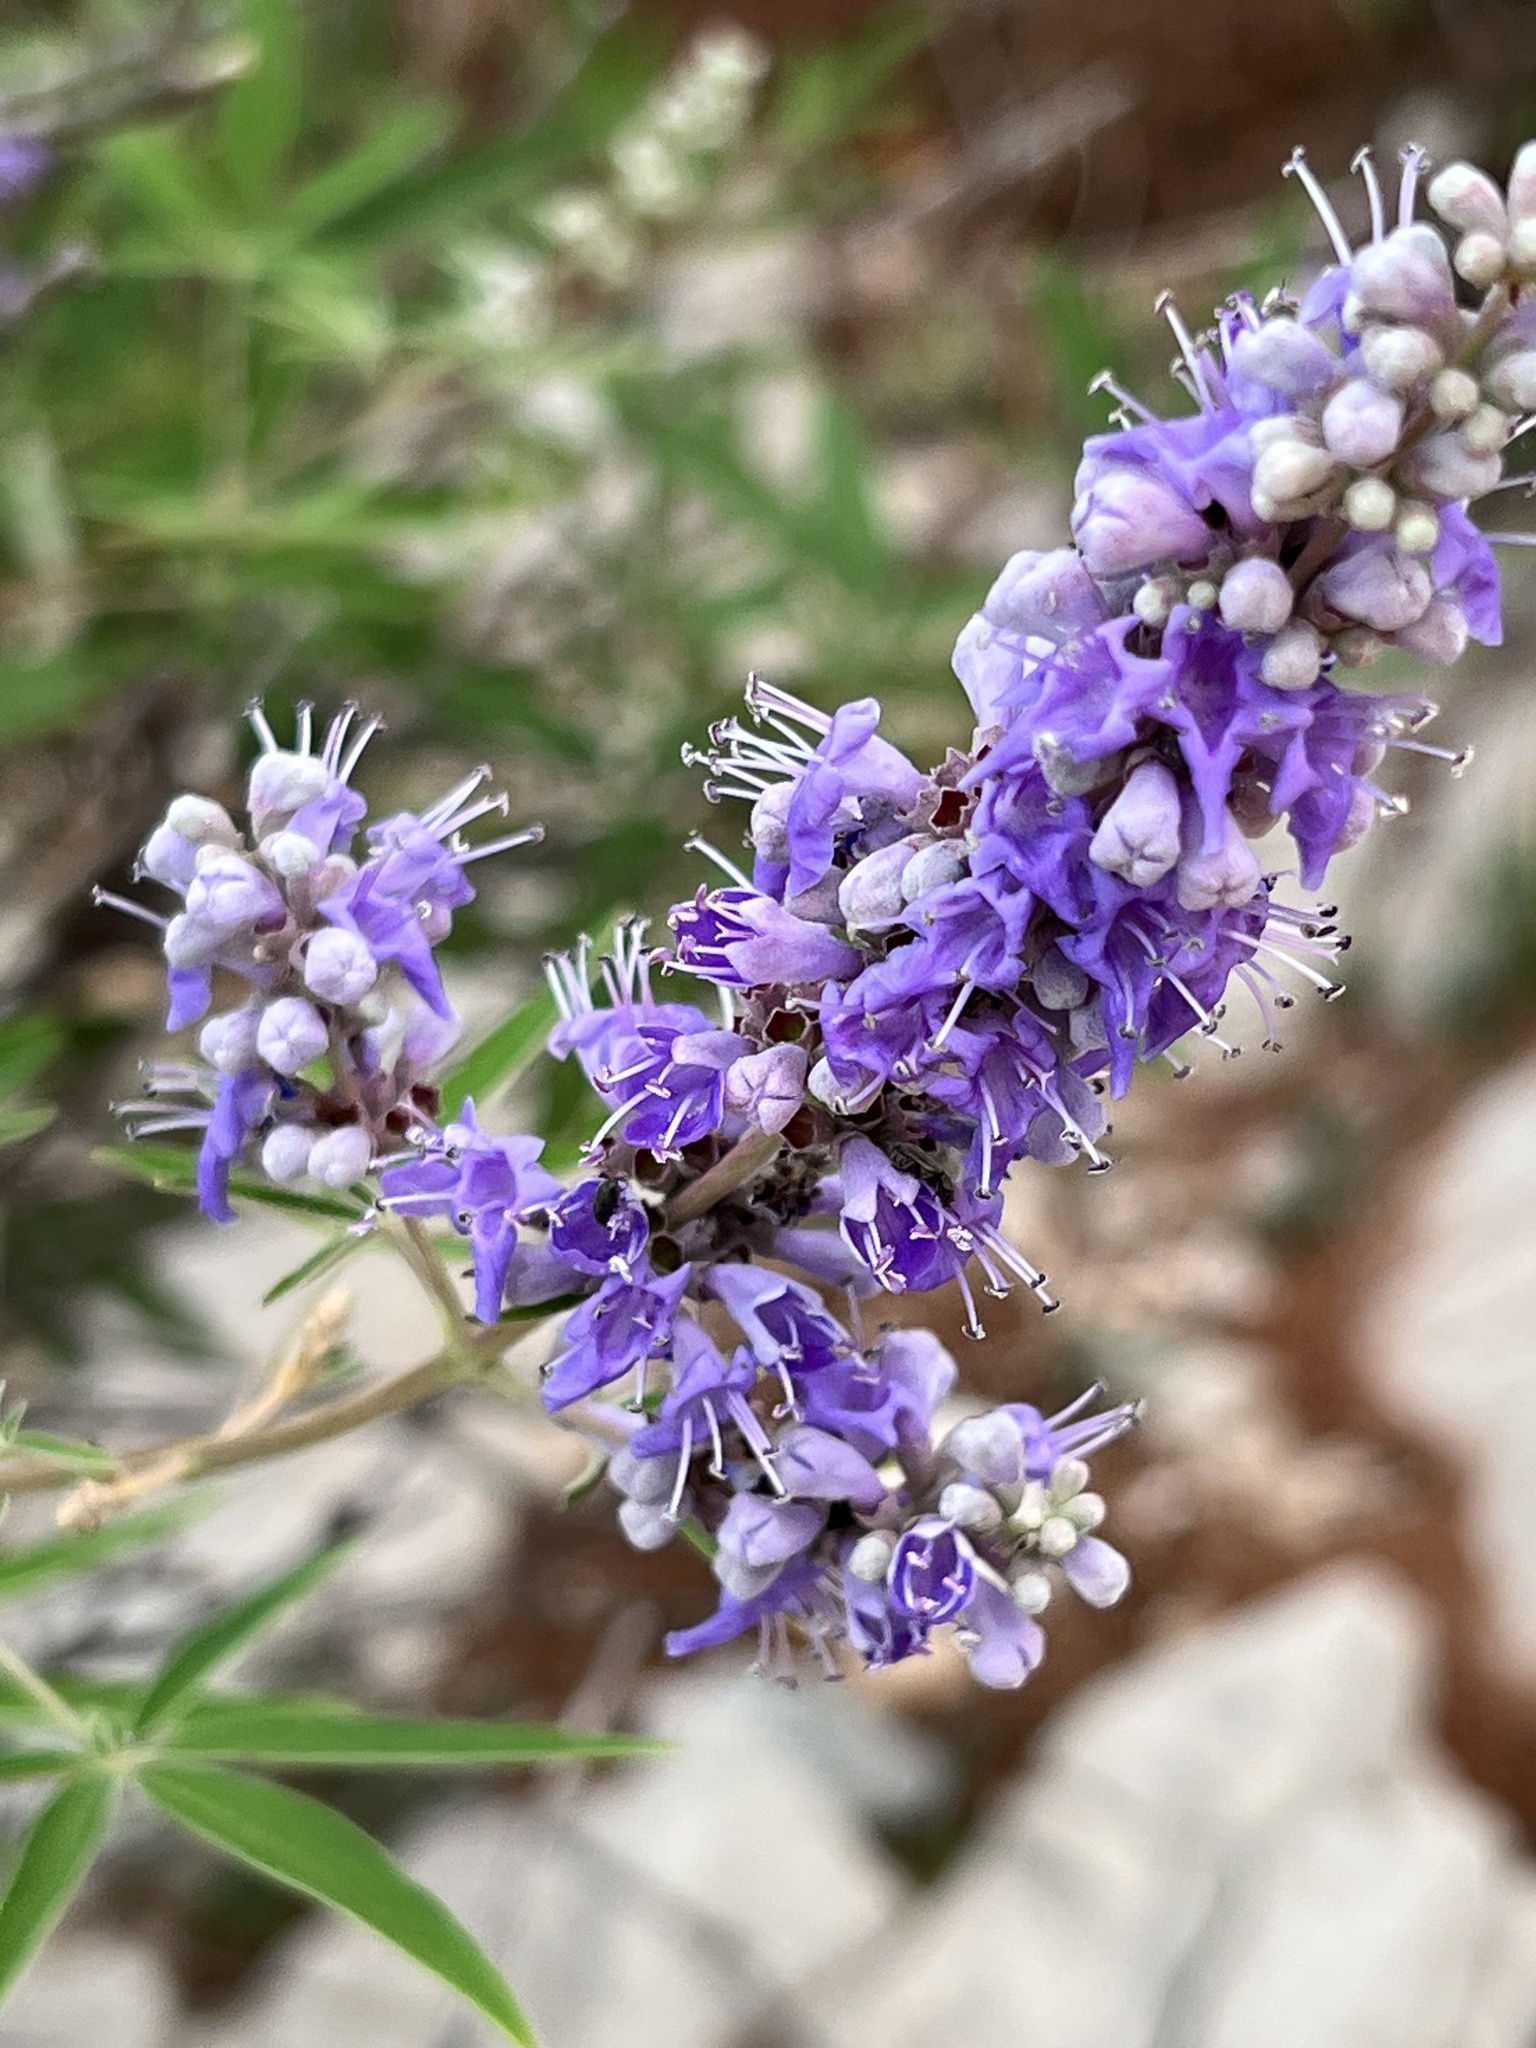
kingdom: Plantae
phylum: Tracheophyta
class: Magnoliopsida
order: Lamiales
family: Lamiaceae
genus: Vitex
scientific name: Vitex agnus-castus
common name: Chasteberry
